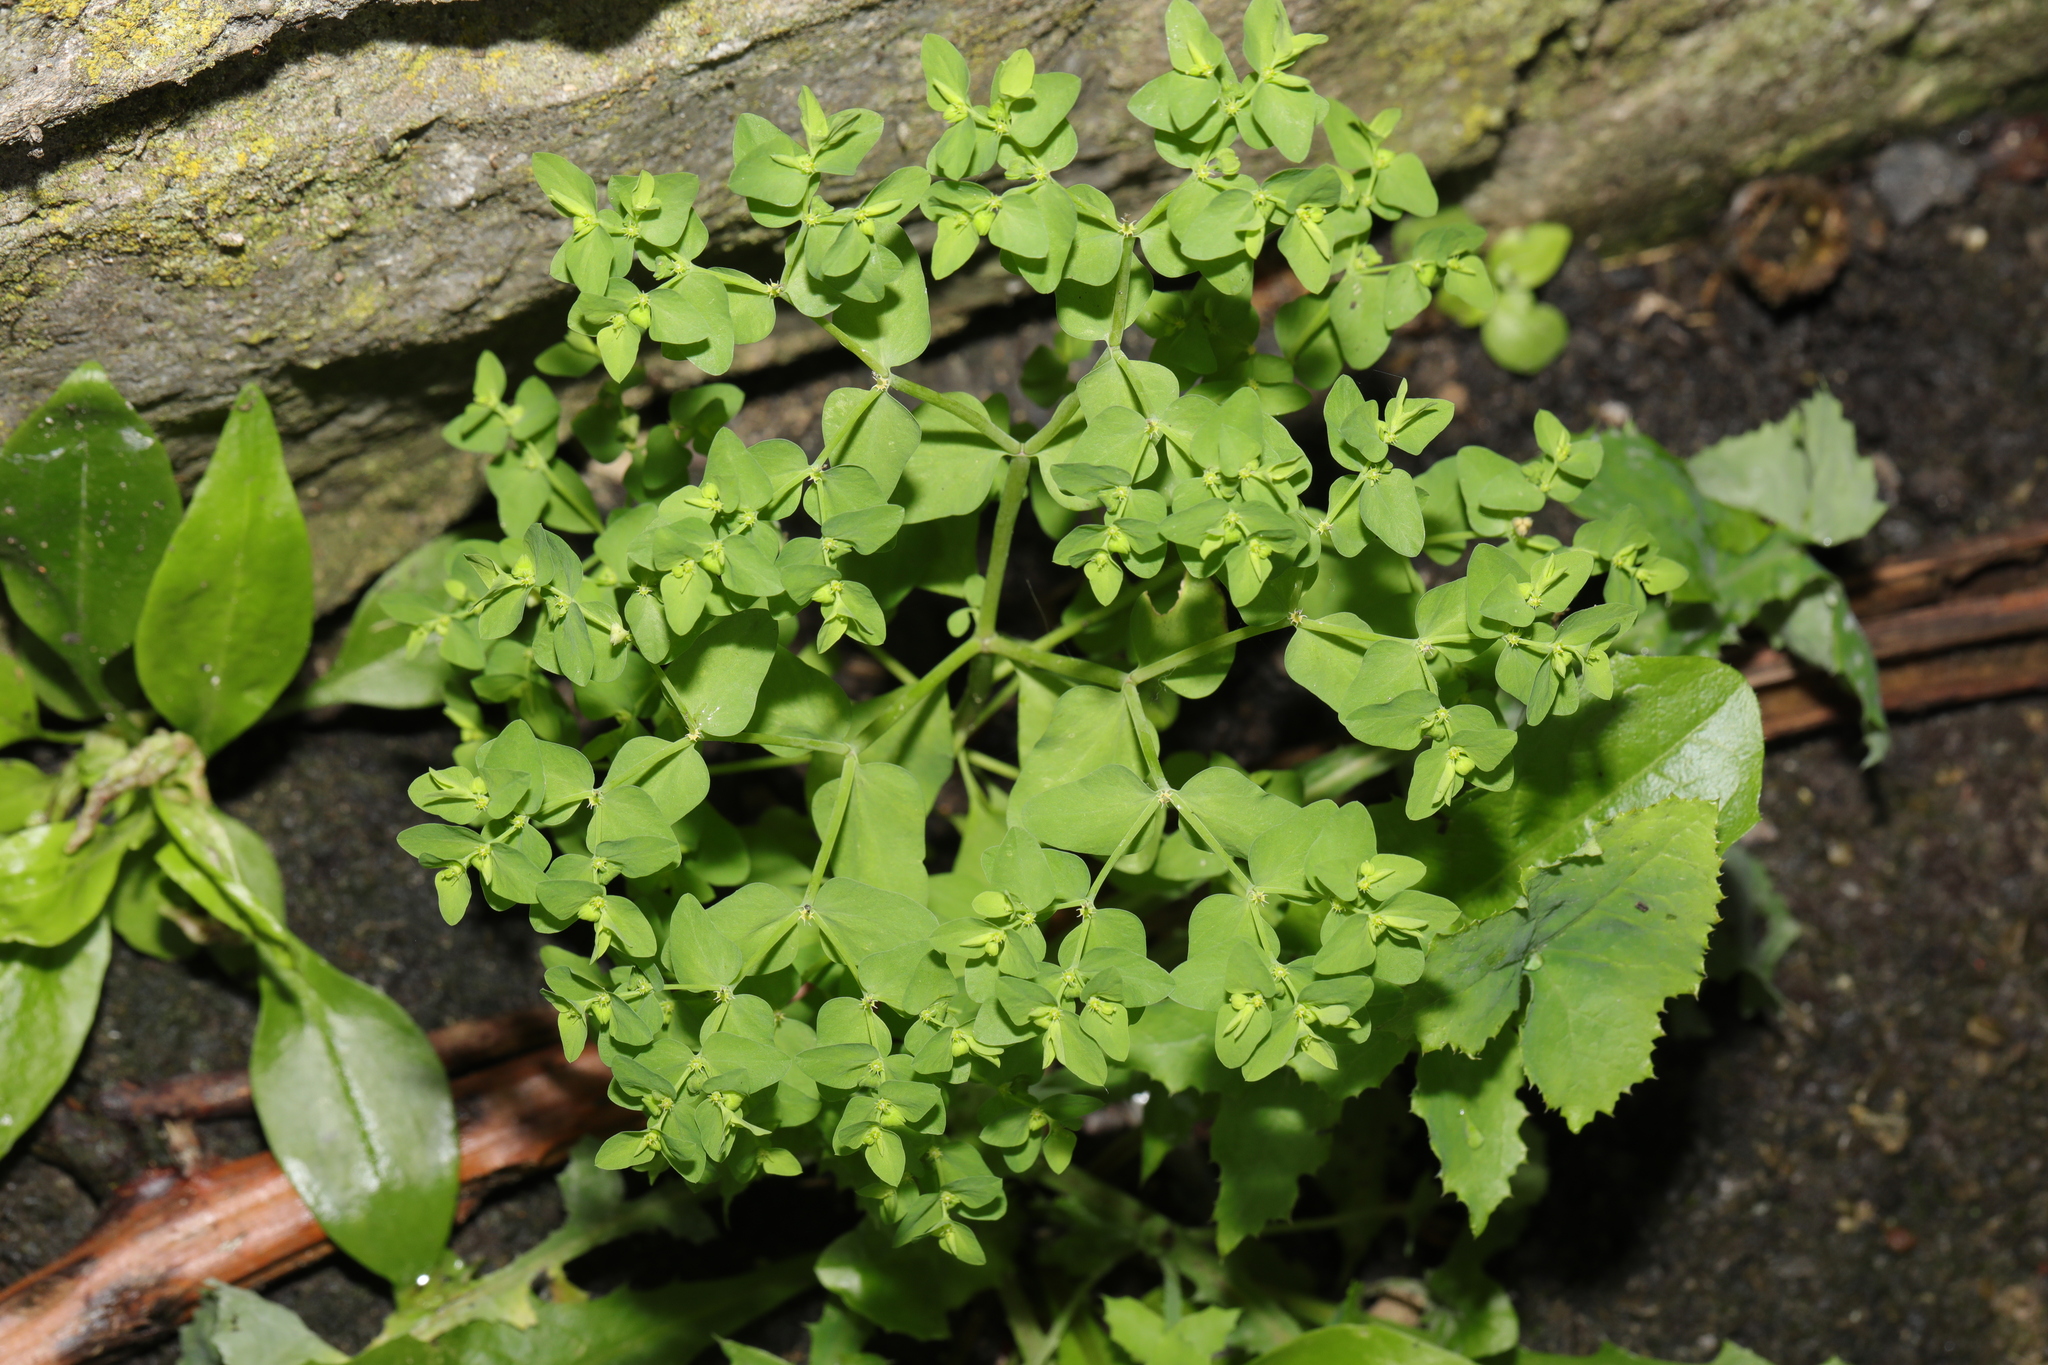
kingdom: Plantae
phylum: Tracheophyta
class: Magnoliopsida
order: Malpighiales
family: Euphorbiaceae
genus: Euphorbia
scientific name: Euphorbia peplus
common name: Petty spurge
